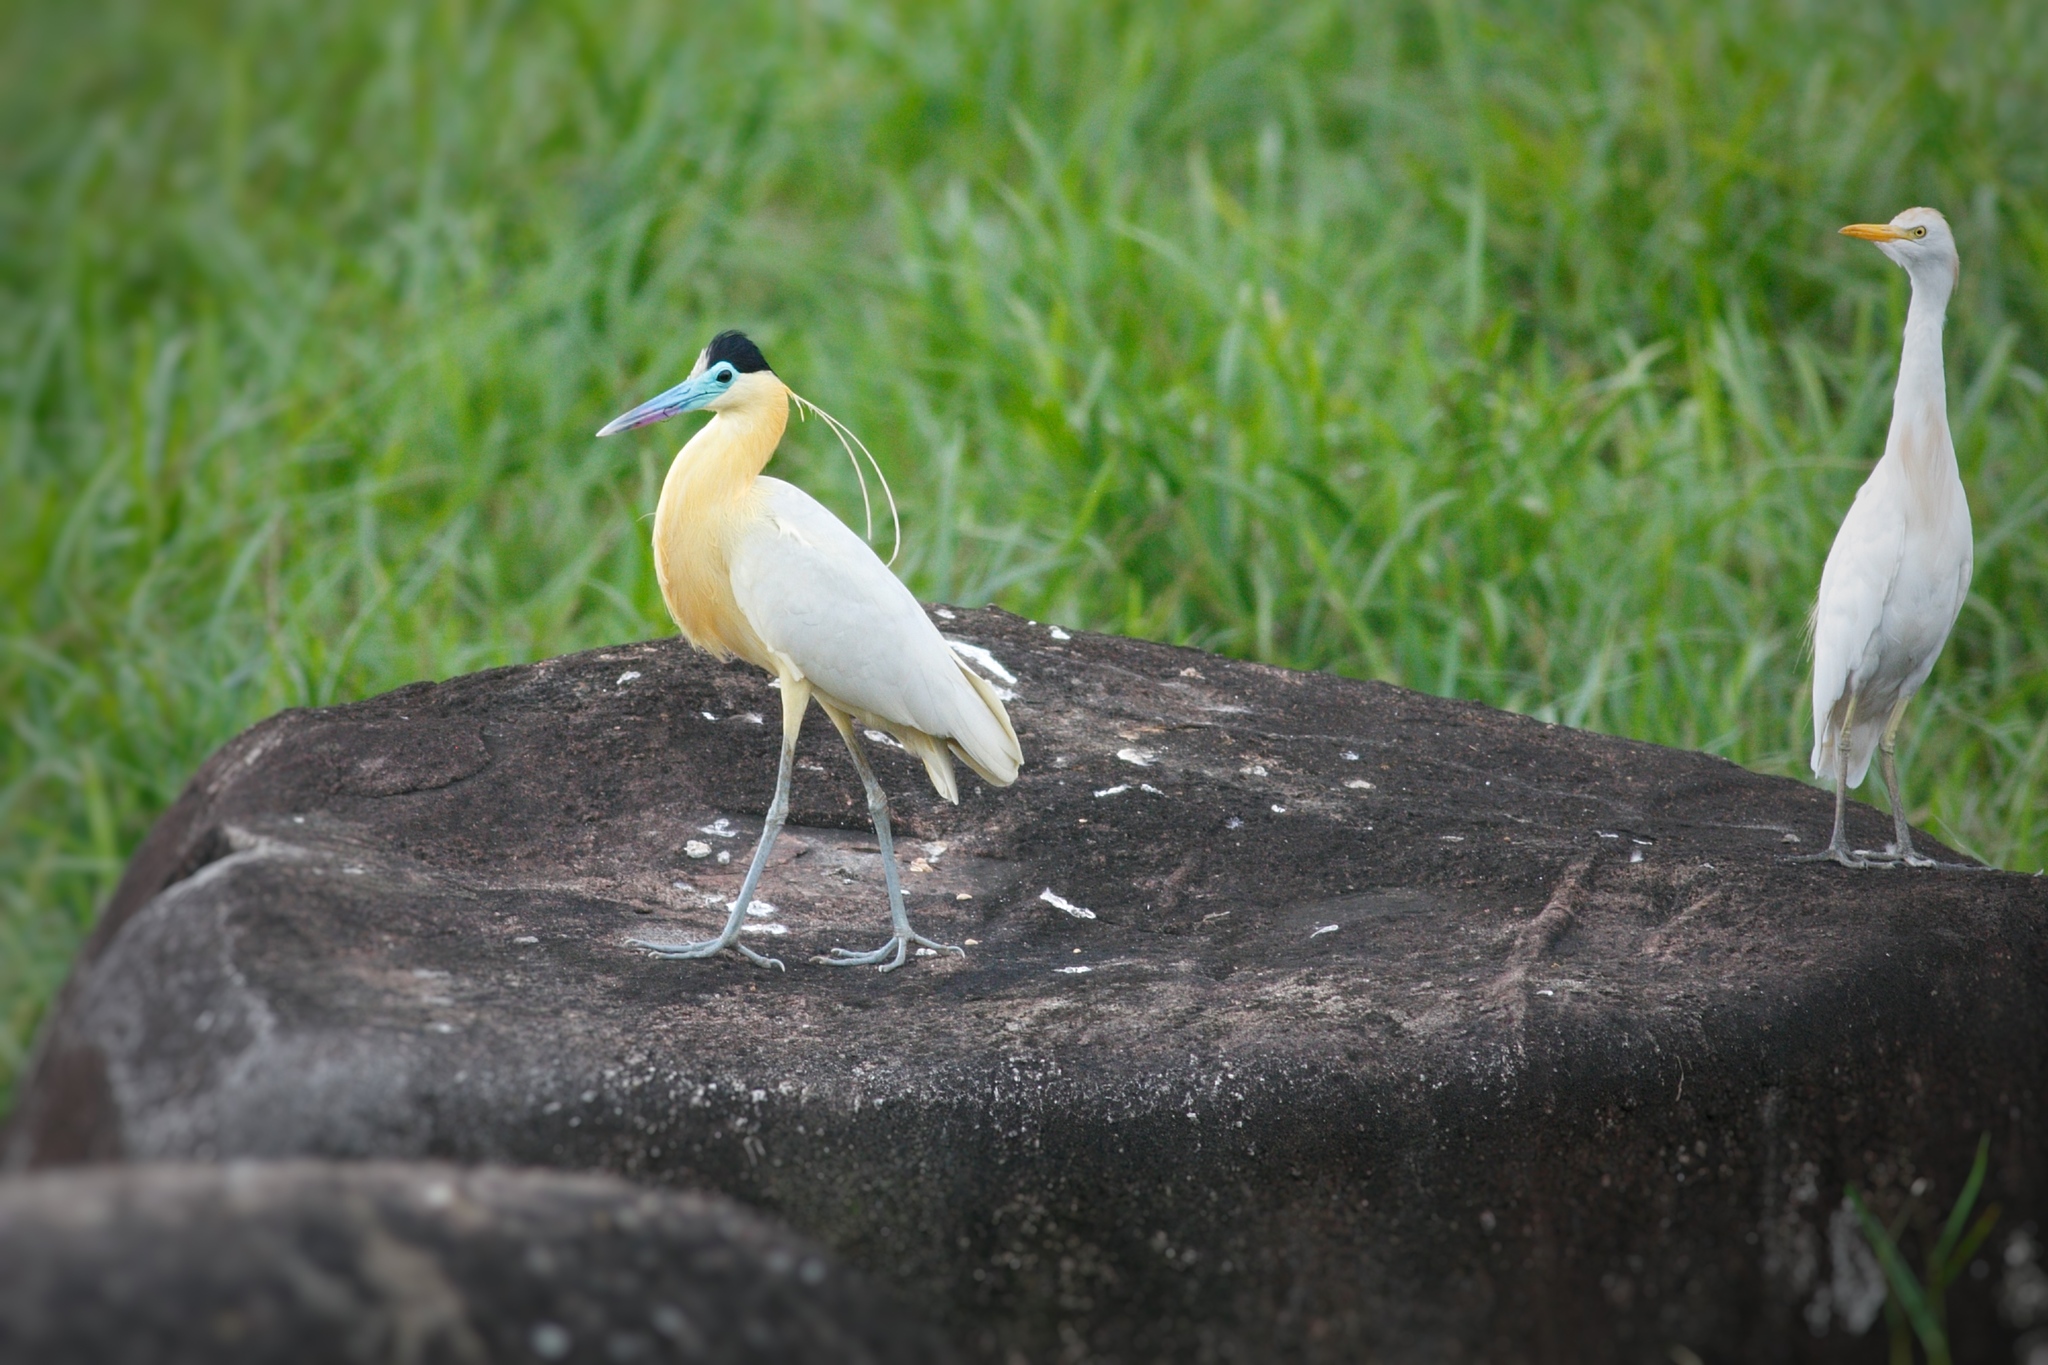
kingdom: Animalia
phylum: Chordata
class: Aves
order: Pelecaniformes
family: Ardeidae
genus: Pilherodius
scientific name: Pilherodius pileatus
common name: Capped heron
